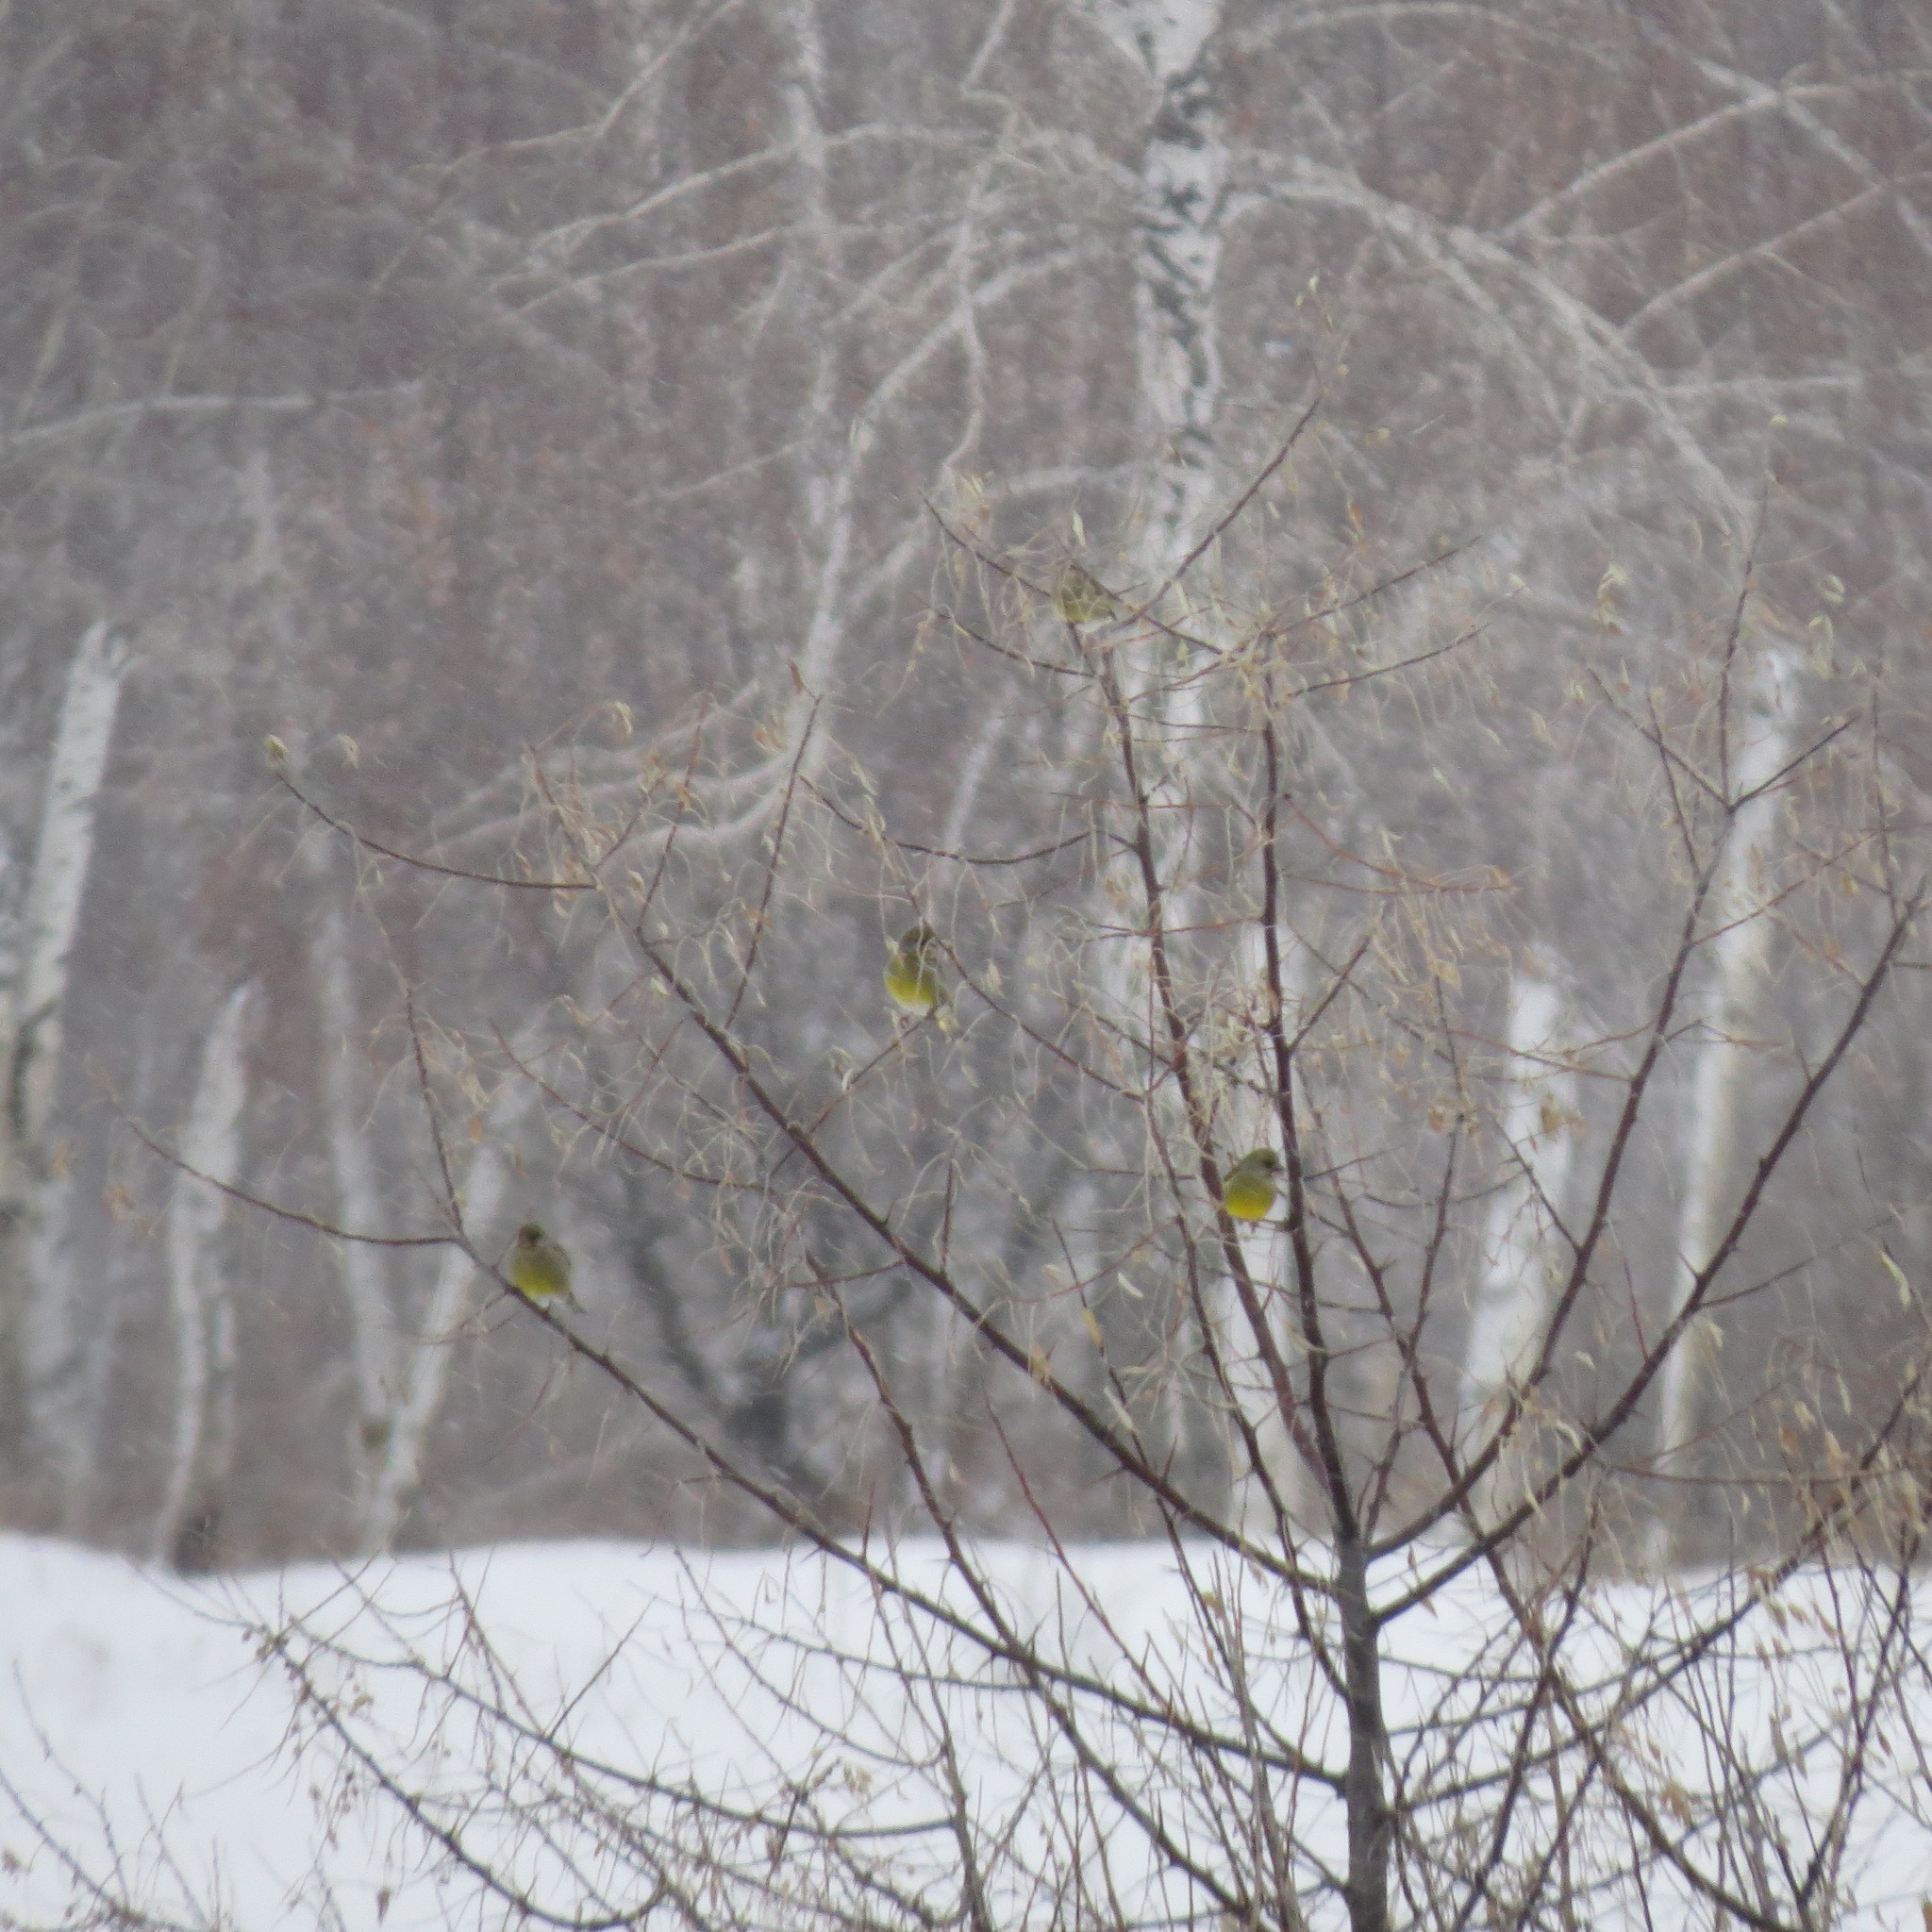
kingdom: Plantae
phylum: Tracheophyta
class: Liliopsida
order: Poales
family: Poaceae
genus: Chloris
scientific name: Chloris chloris
